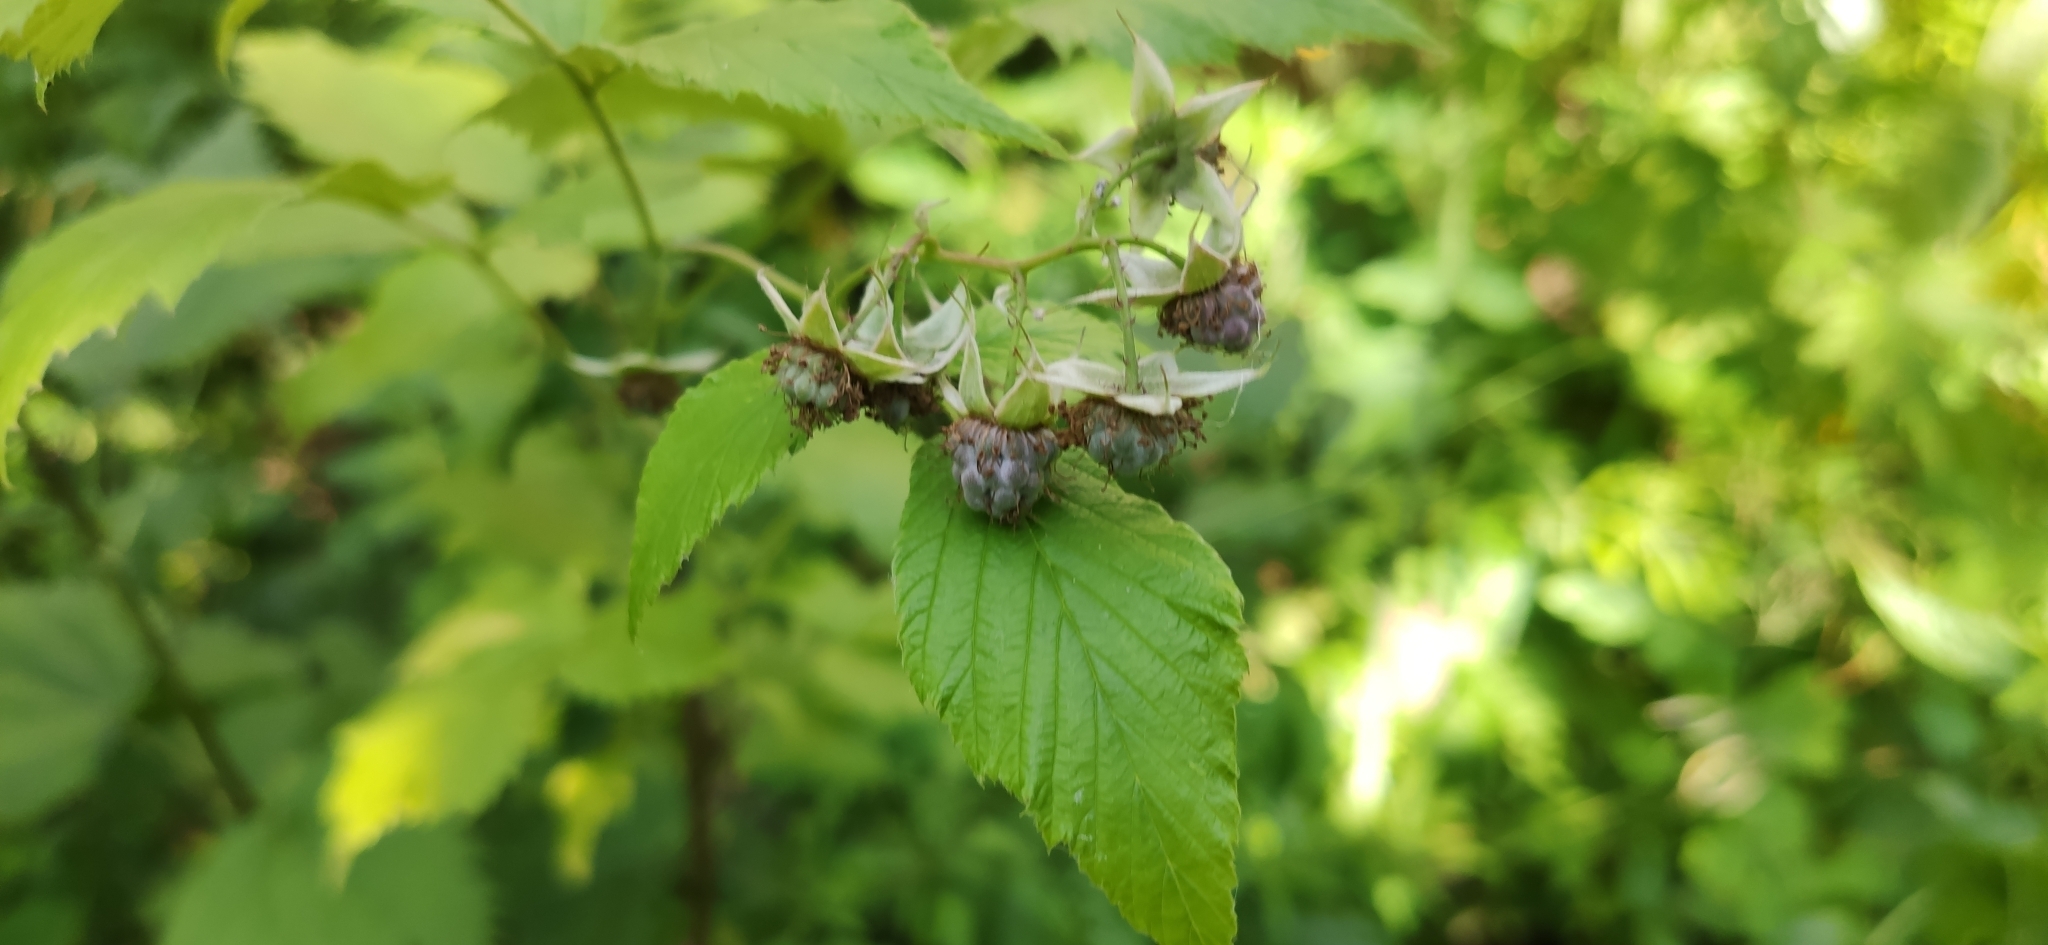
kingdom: Plantae
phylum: Tracheophyta
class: Magnoliopsida
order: Rosales
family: Rosaceae
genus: Rubus
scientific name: Rubus idaeus
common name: Raspberry
